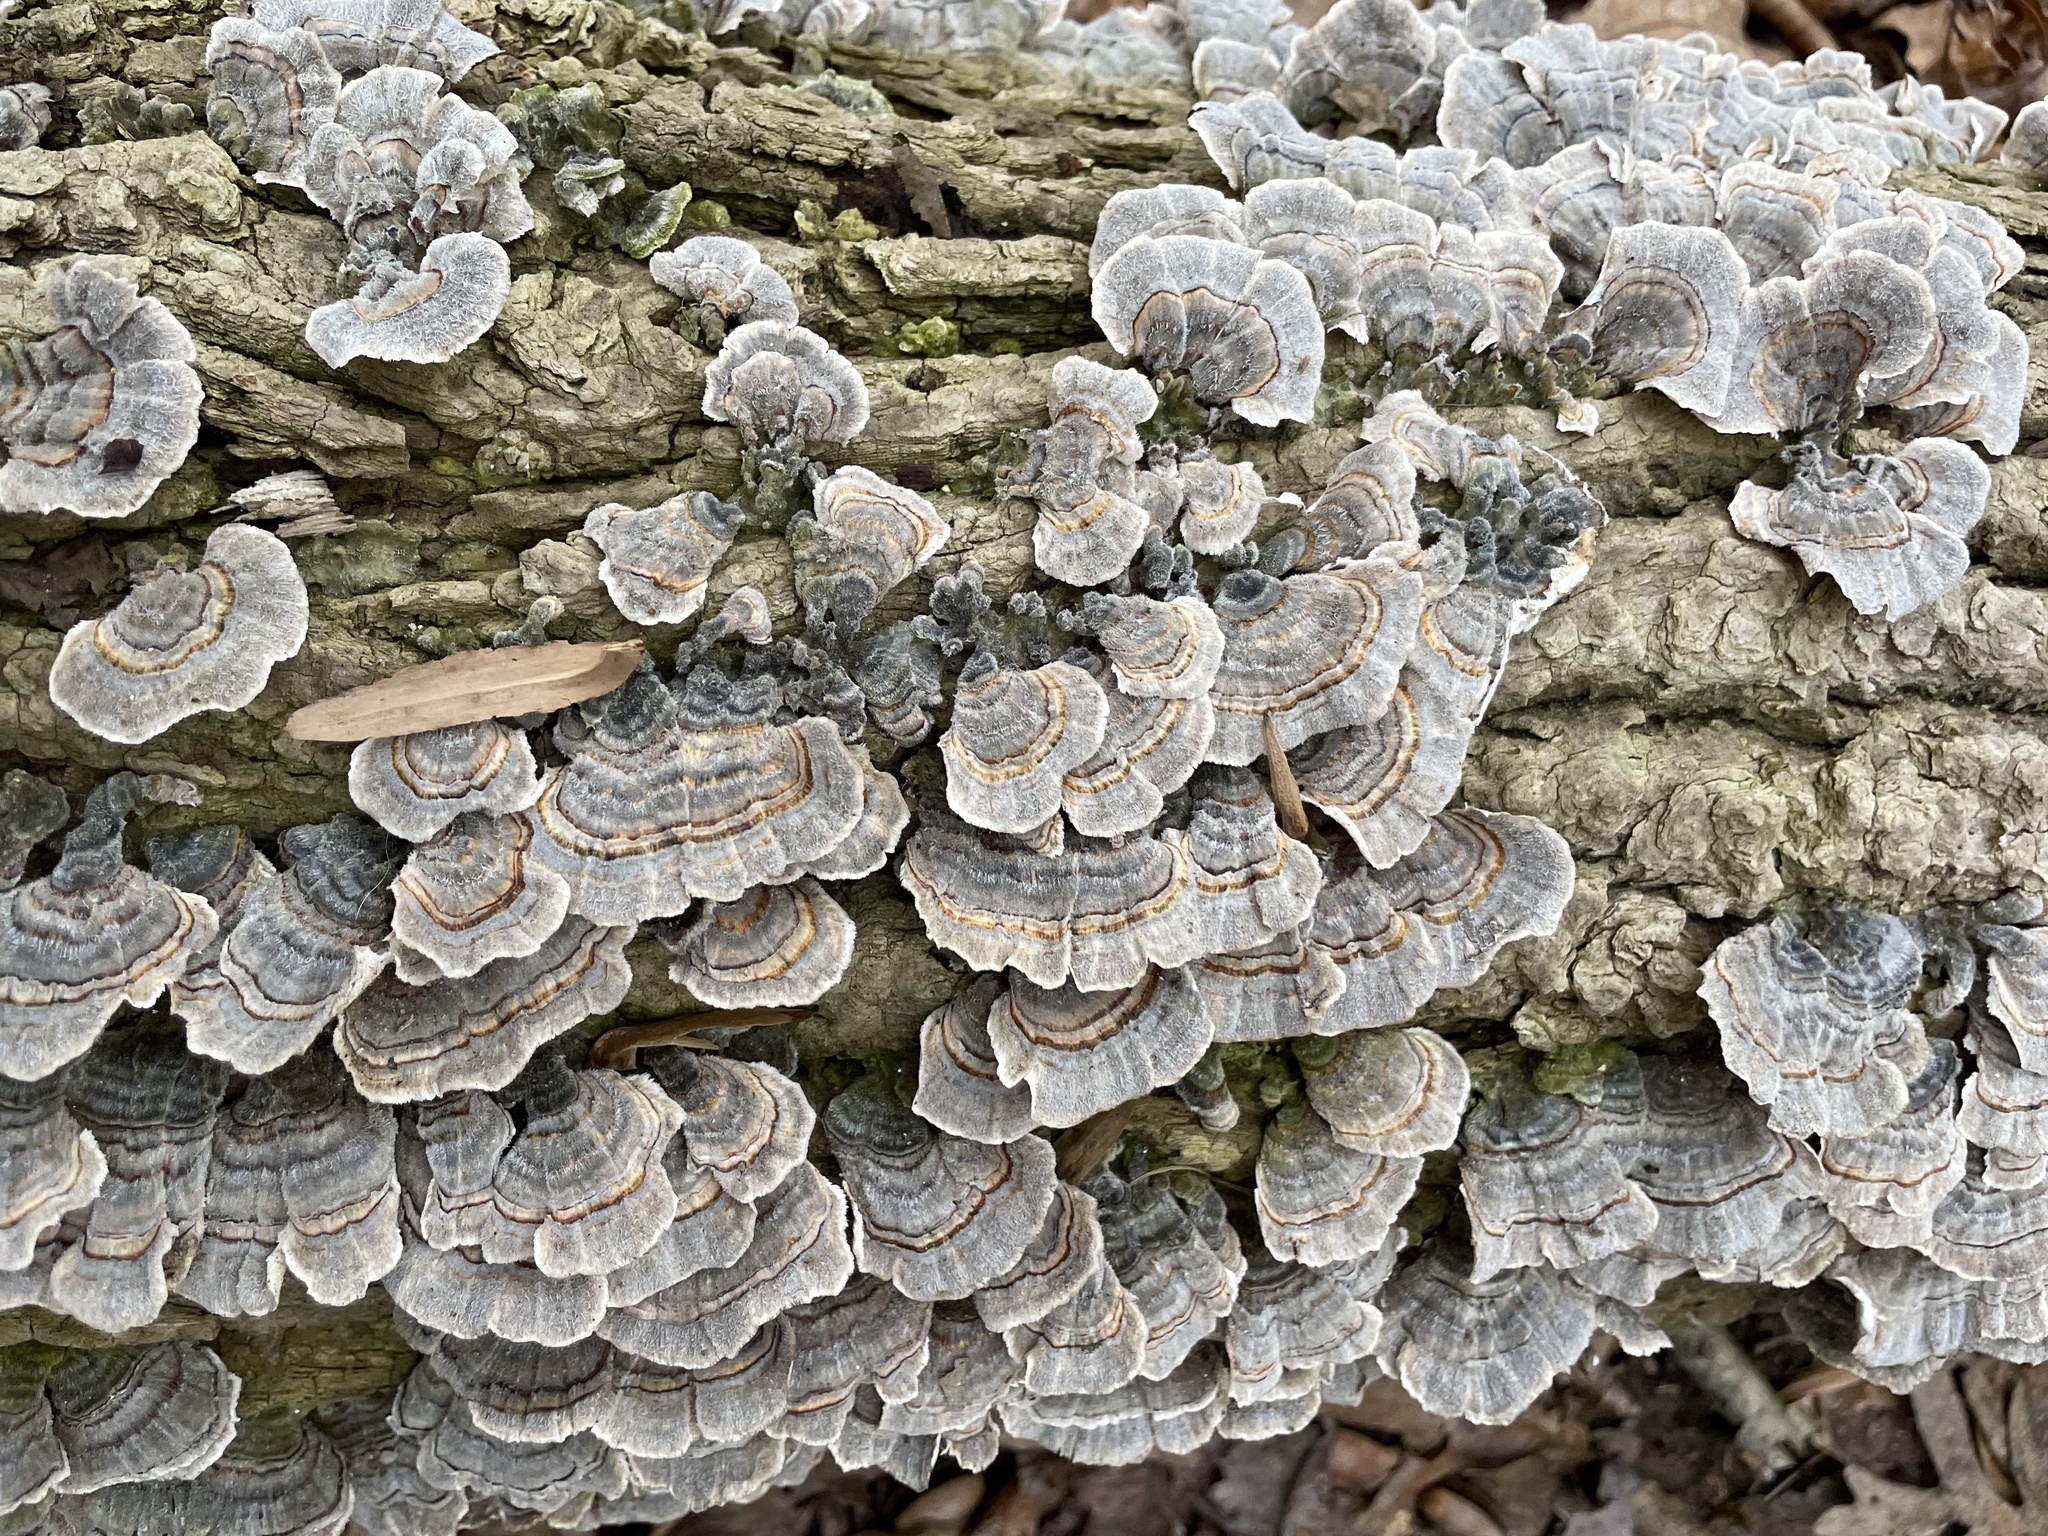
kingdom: Fungi
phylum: Basidiomycota
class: Agaricomycetes
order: Polyporales
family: Polyporaceae
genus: Trametes
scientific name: Trametes versicolor
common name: Turkeytail
